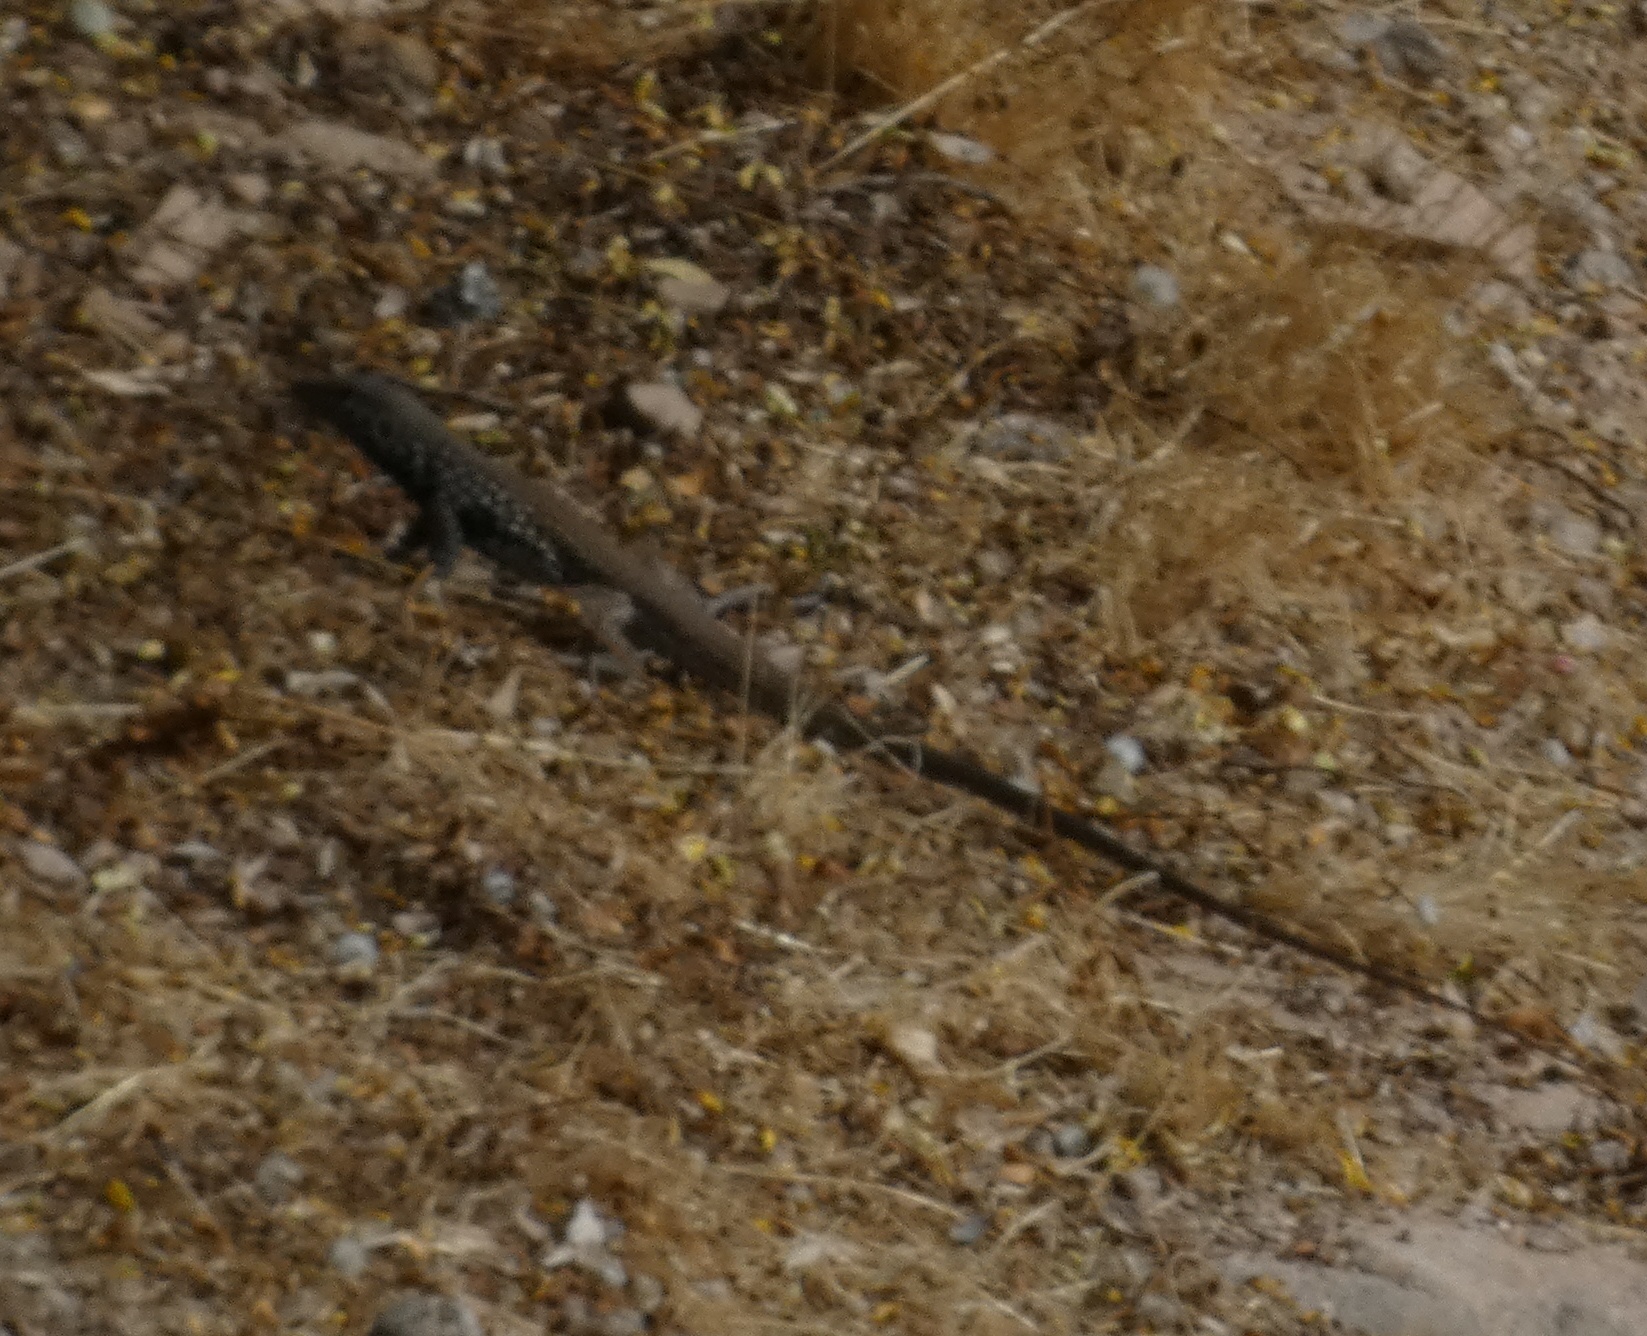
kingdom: Animalia
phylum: Chordata
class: Squamata
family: Teiidae
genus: Aspidoscelis
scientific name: Aspidoscelis tigris
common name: Tiger whiptail
